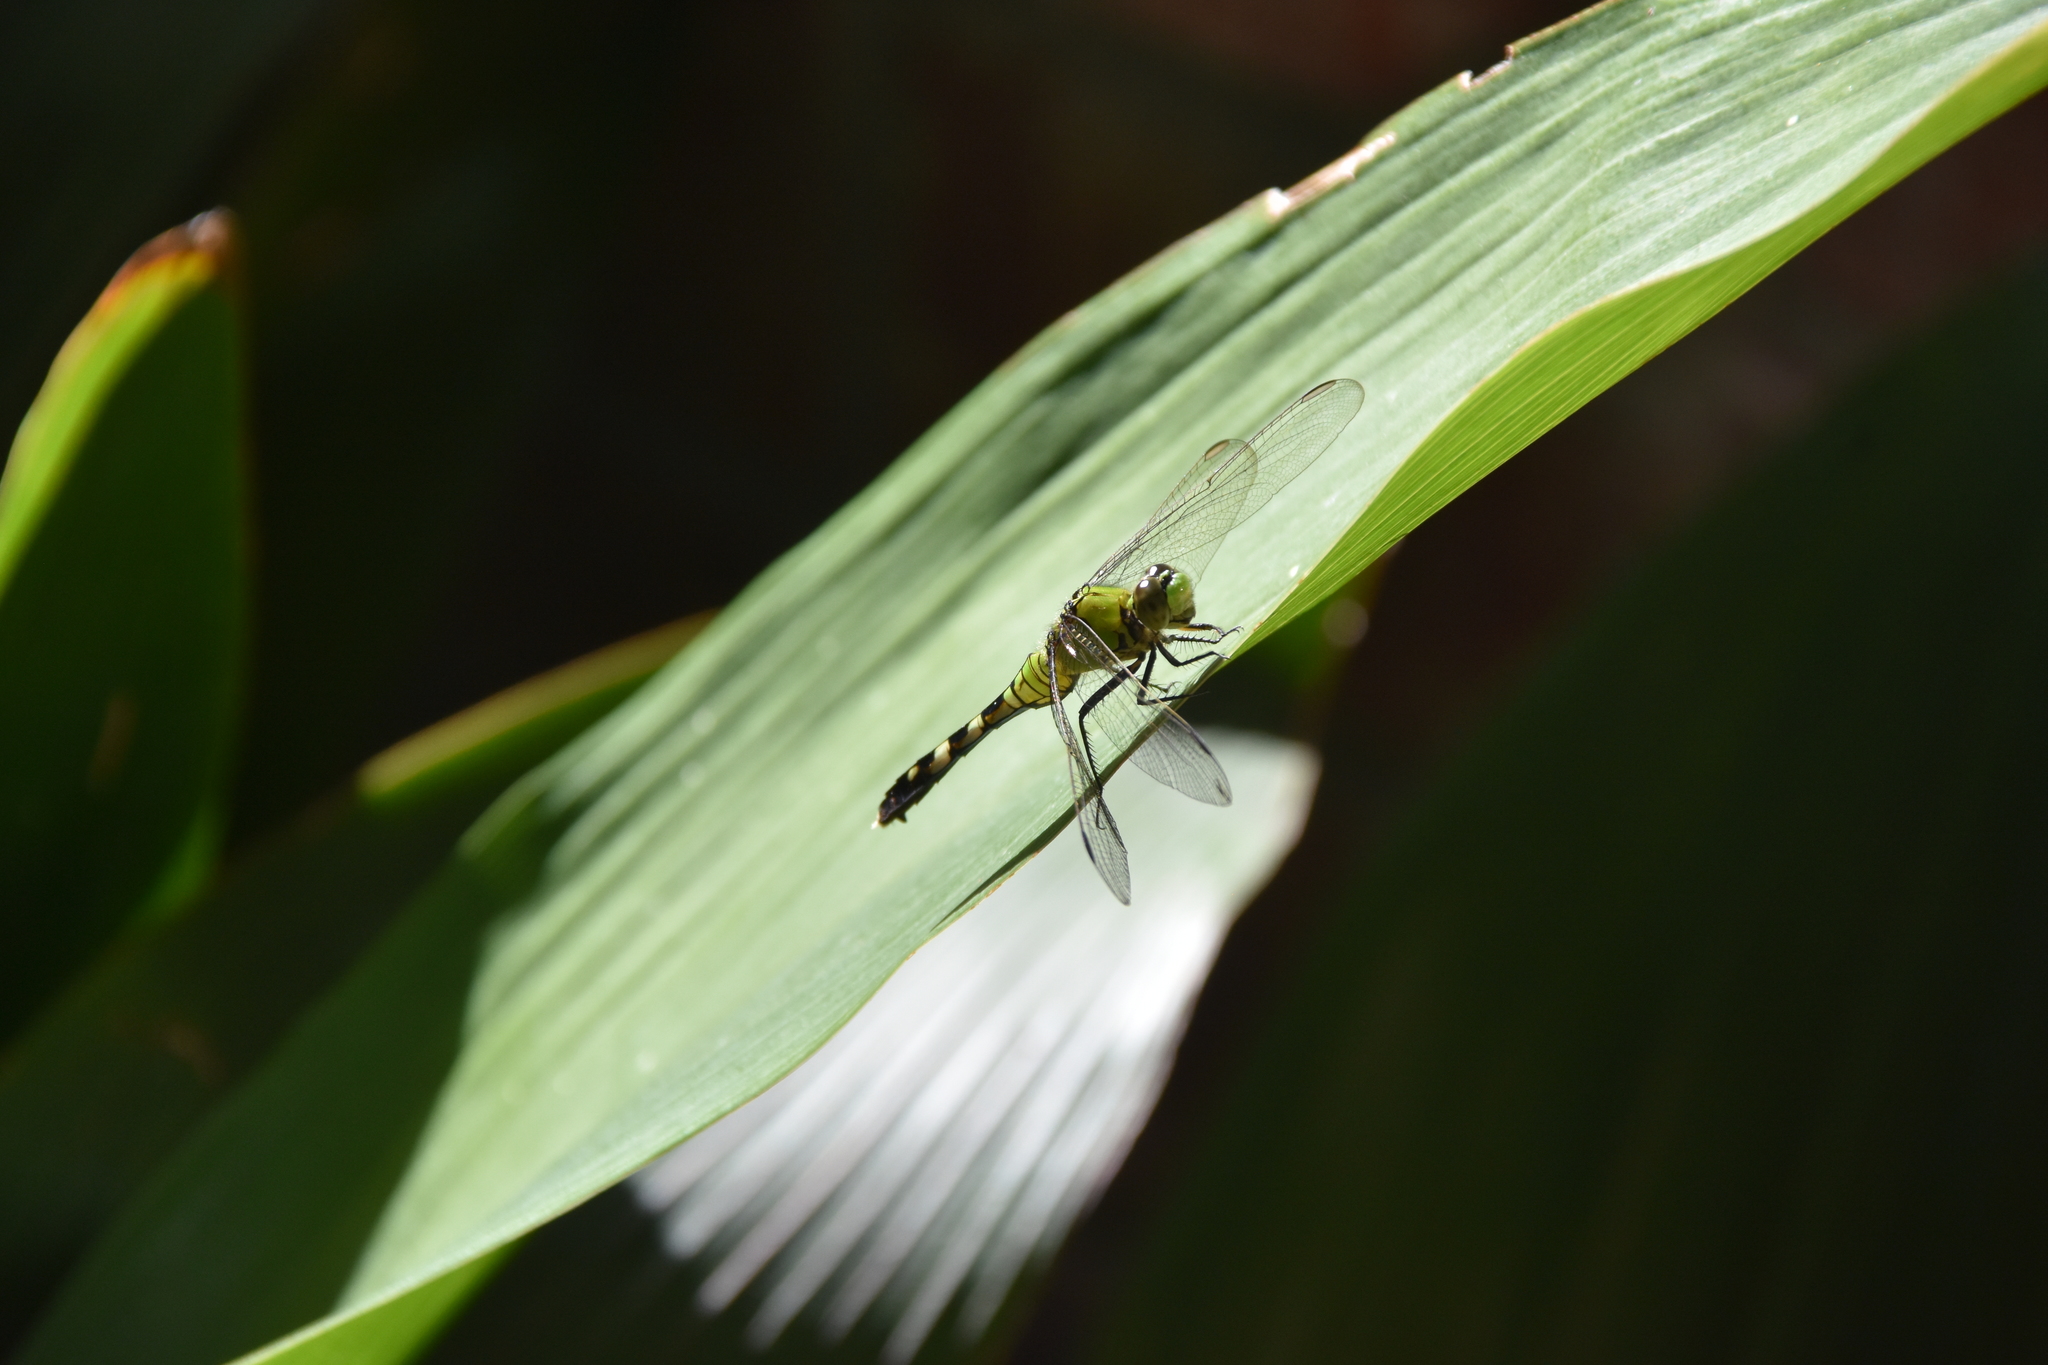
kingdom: Animalia
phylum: Arthropoda
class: Insecta
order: Odonata
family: Libellulidae
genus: Erythemis
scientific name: Erythemis simplicicollis
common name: Eastern pondhawk
